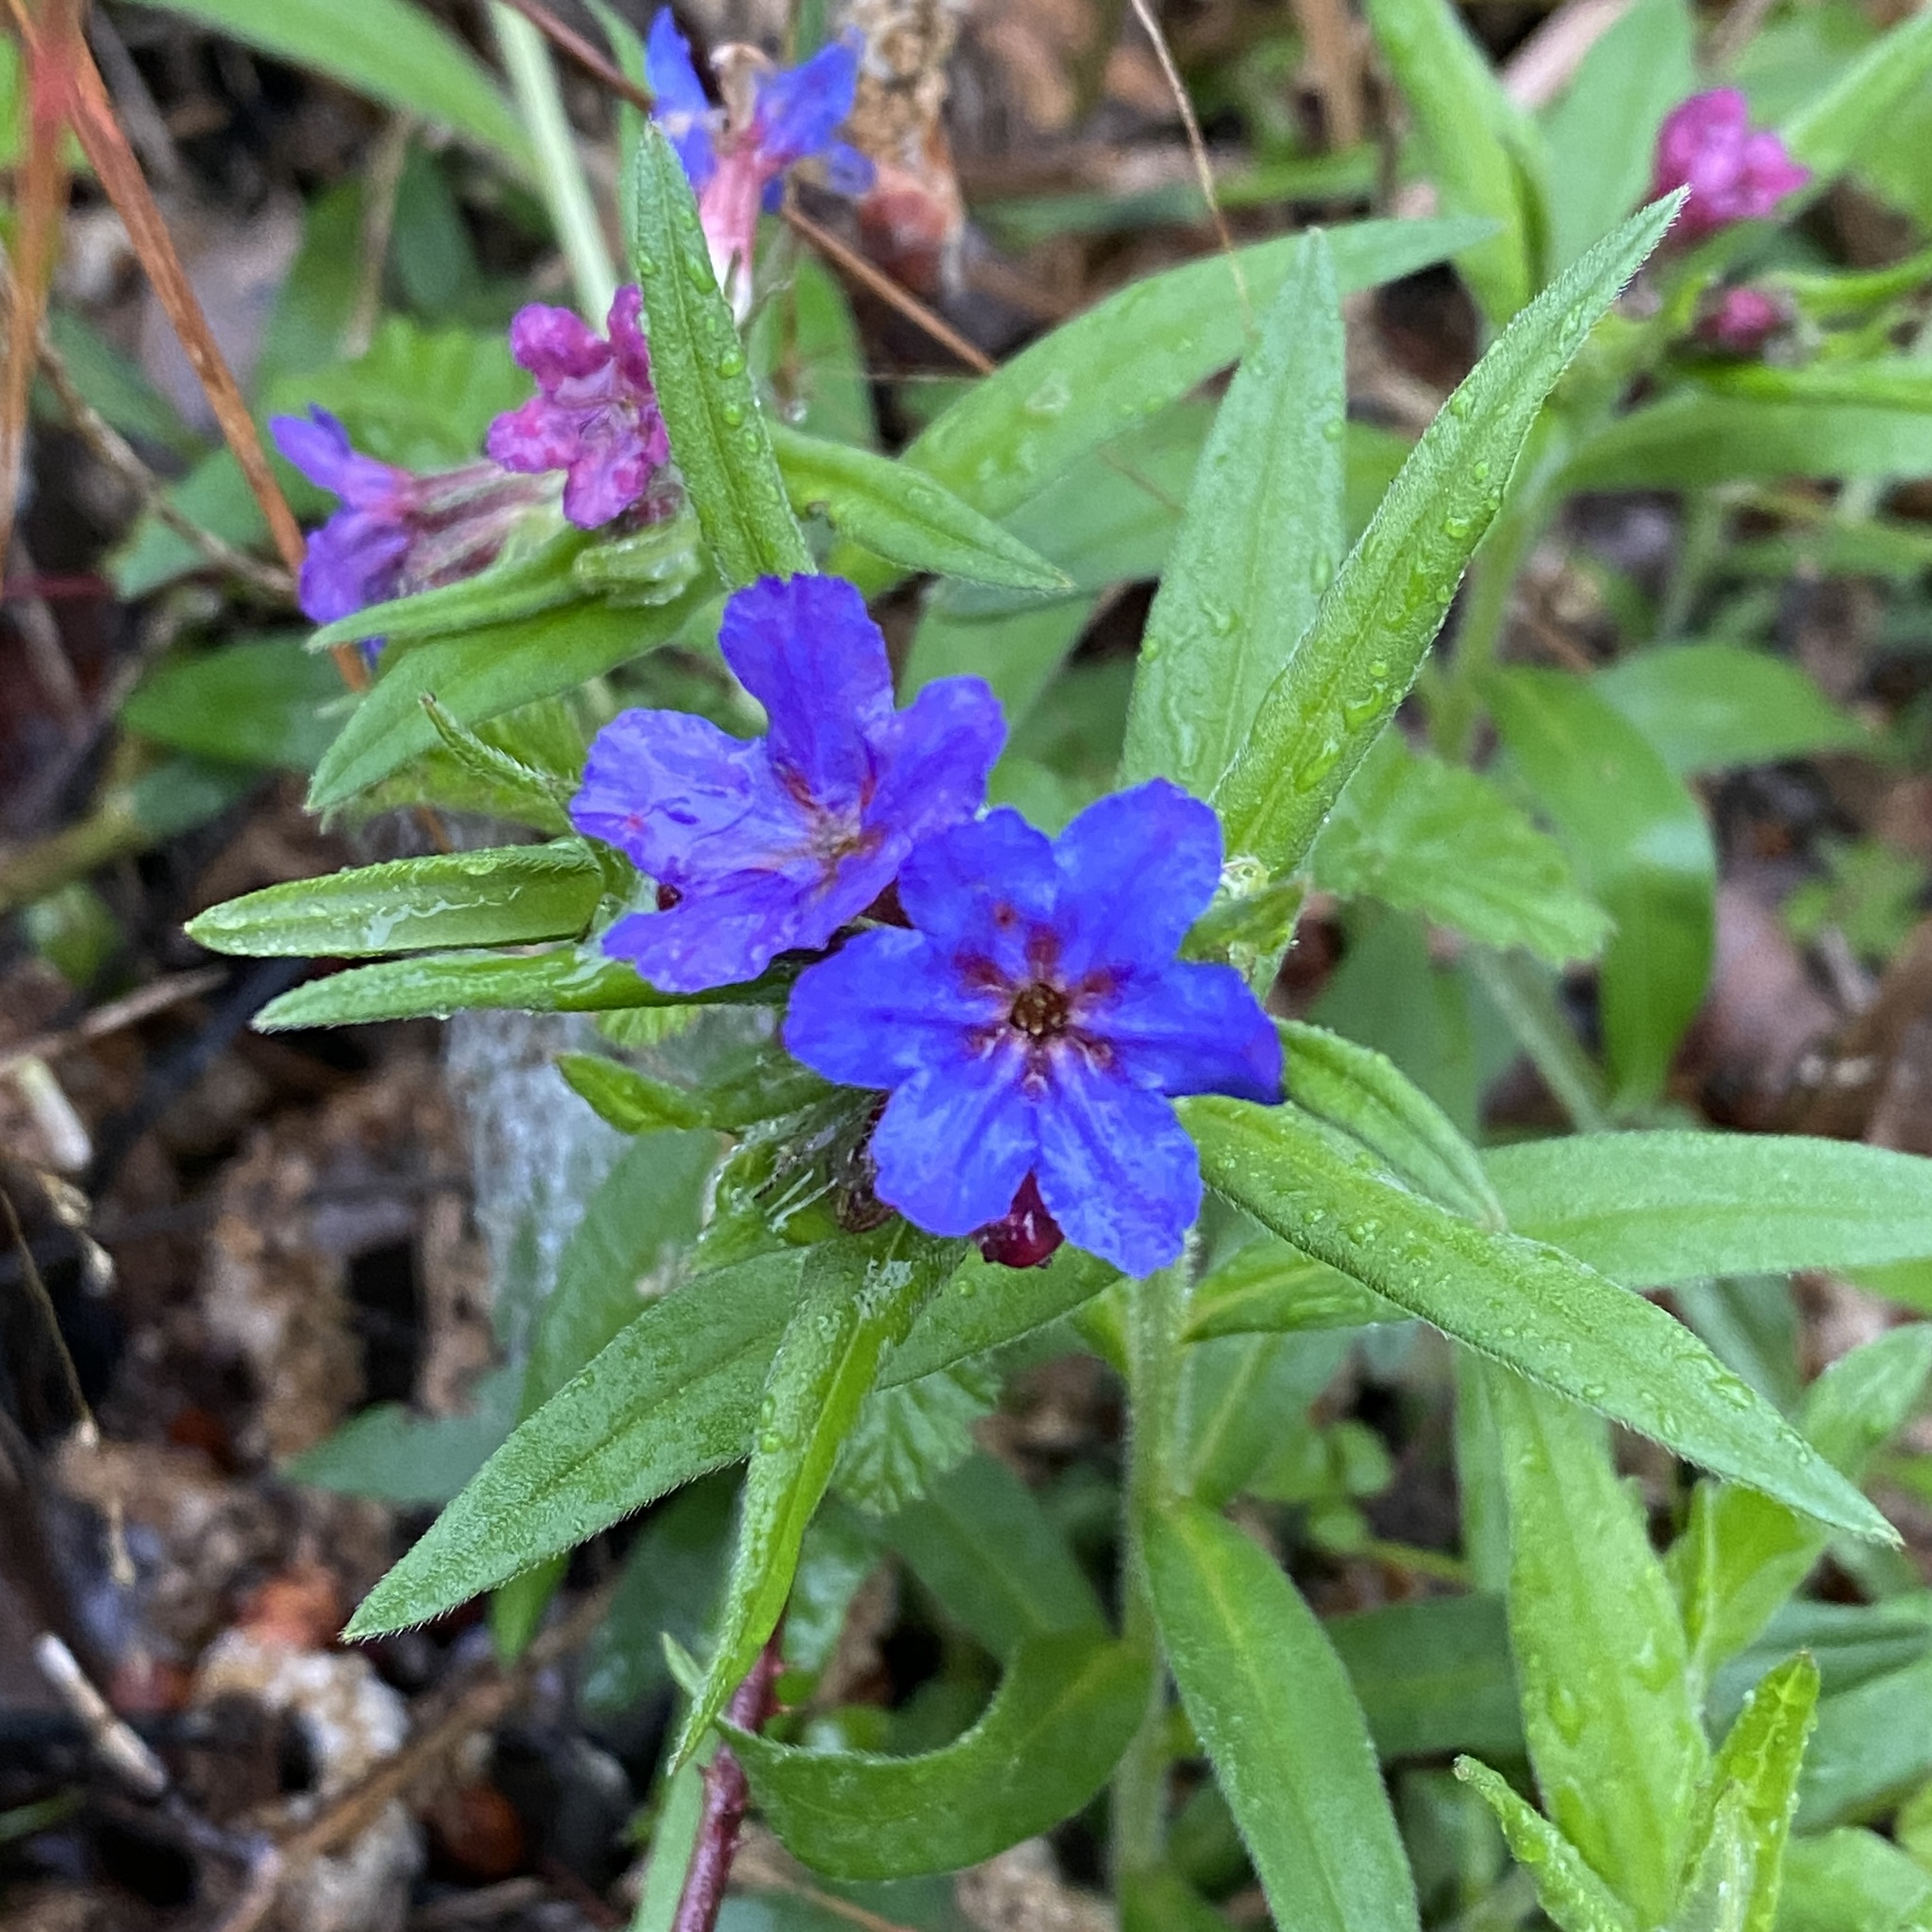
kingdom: Plantae
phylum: Tracheophyta
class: Magnoliopsida
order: Boraginales
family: Boraginaceae
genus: Aegonychon
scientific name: Aegonychon purpurocaeruleum
